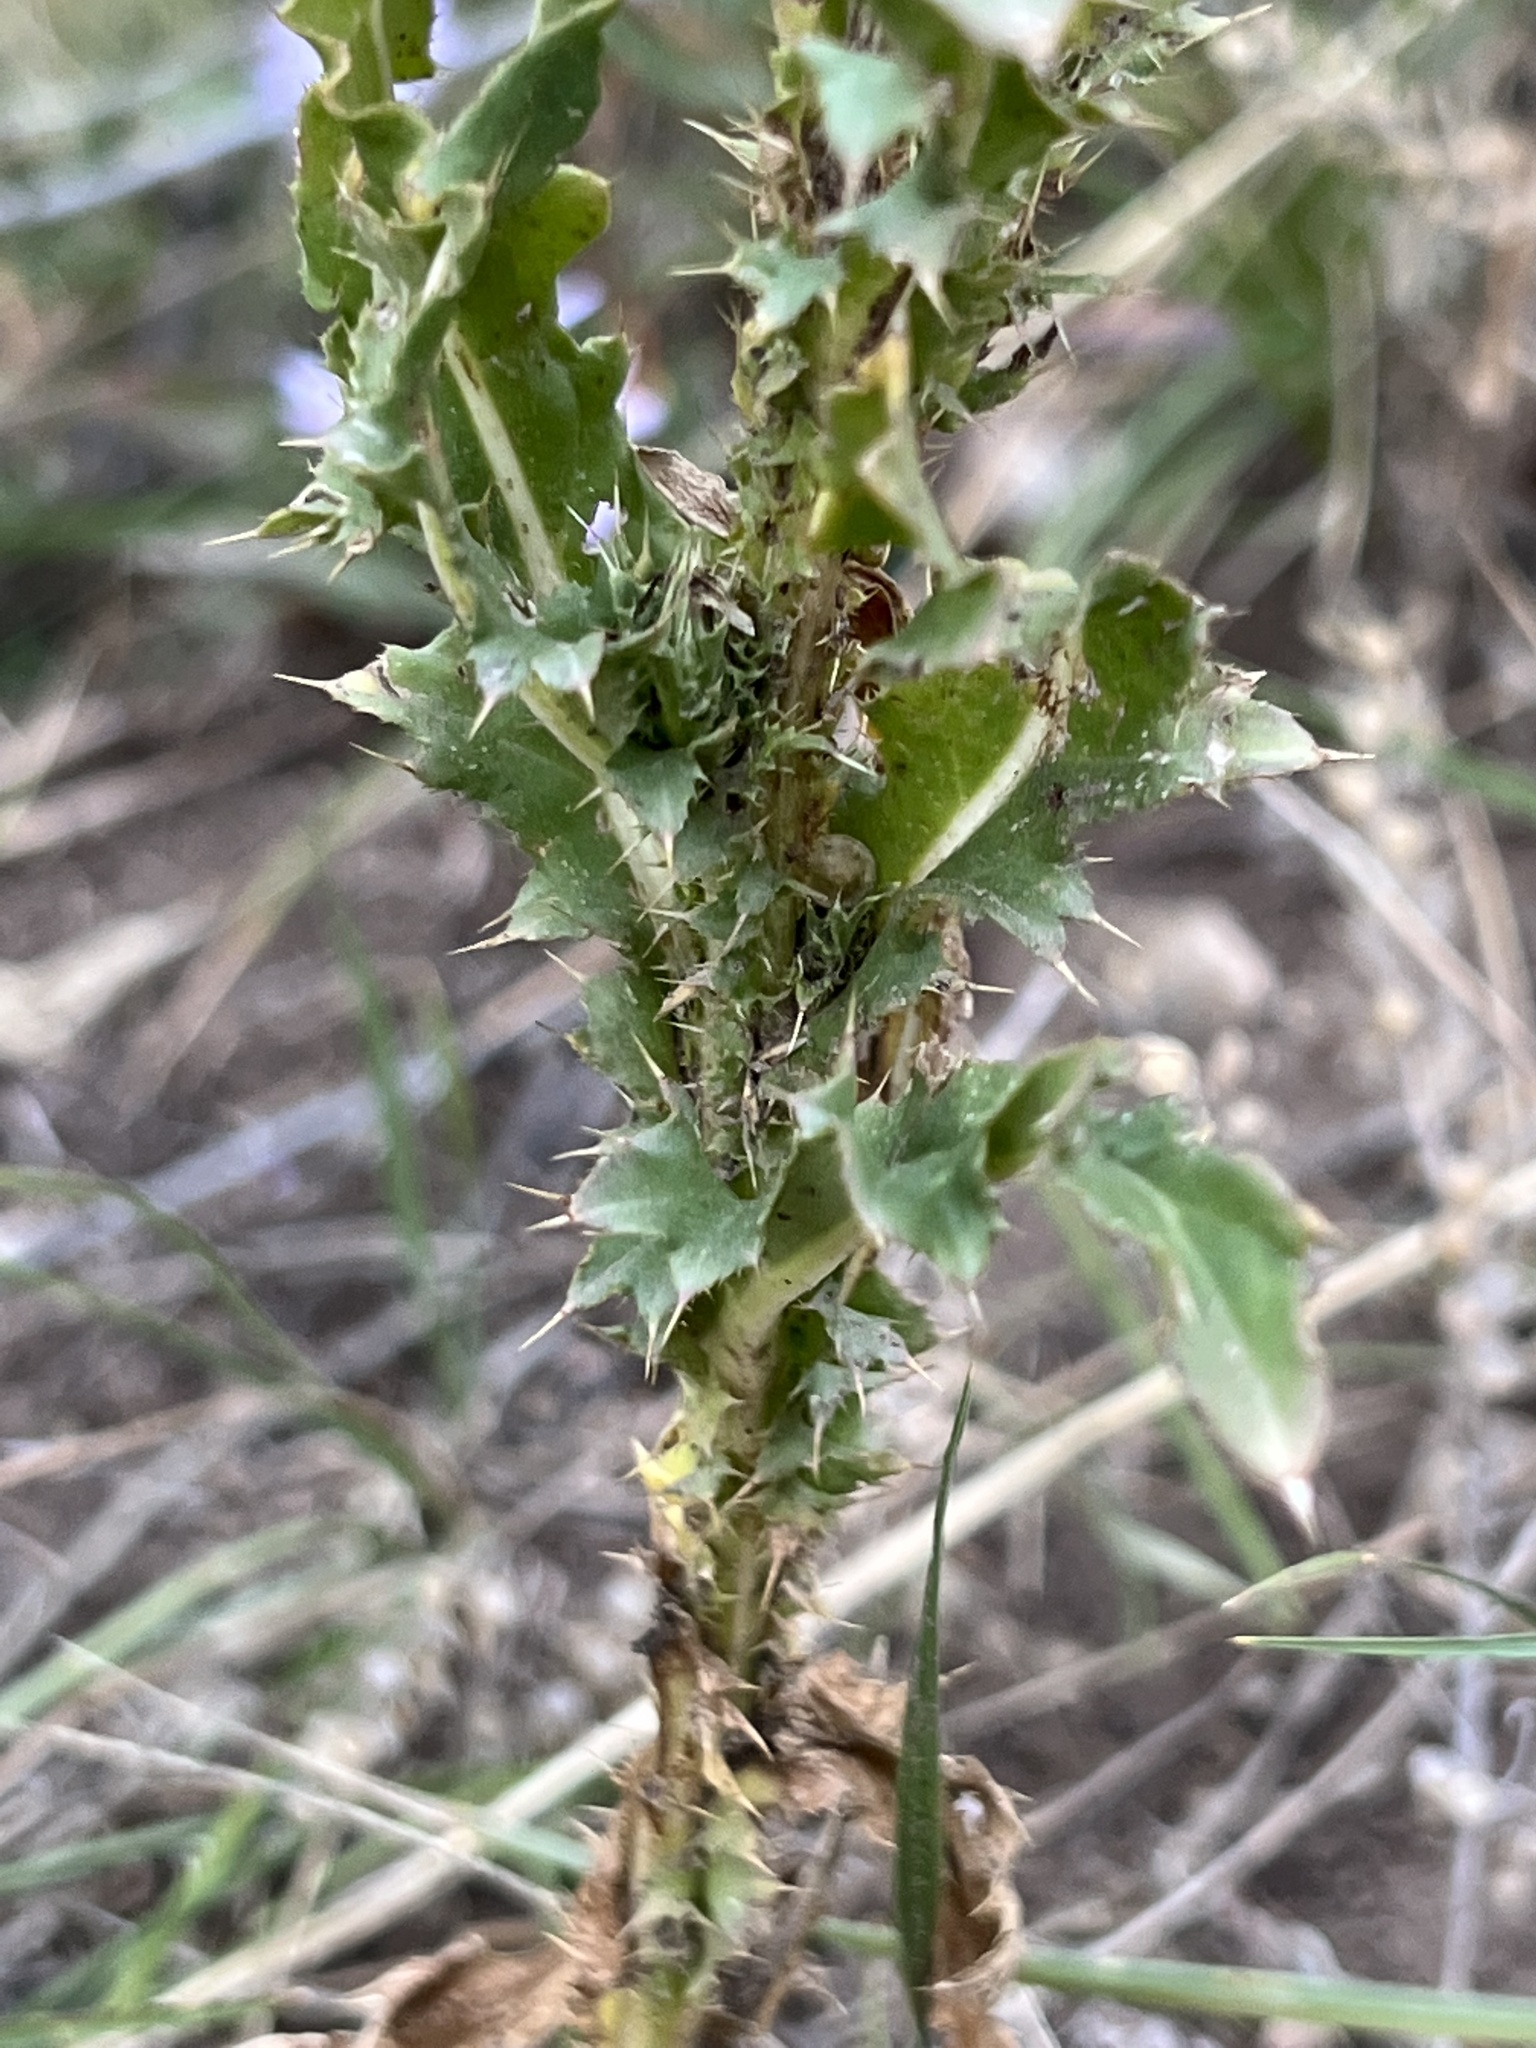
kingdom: Plantae
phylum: Tracheophyta
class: Magnoliopsida
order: Asterales
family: Asteraceae
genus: Carduus
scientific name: Carduus nutans
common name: Musk thistle
